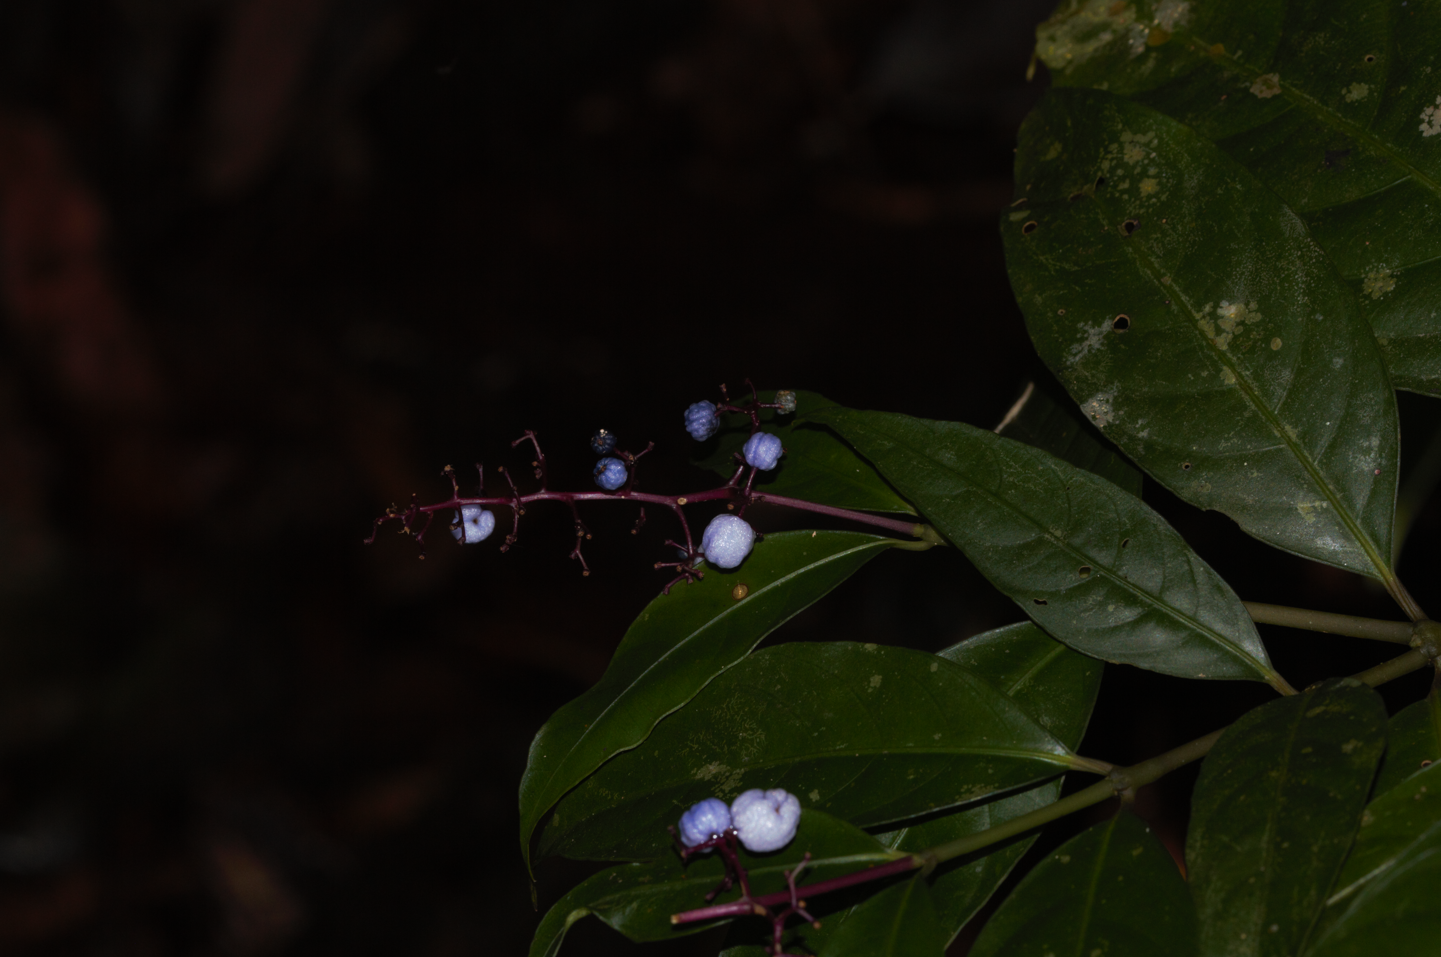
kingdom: Plantae
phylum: Tracheophyta
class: Magnoliopsida
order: Gentianales
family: Rubiaceae
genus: Palicourea
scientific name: Palicourea deflexa
